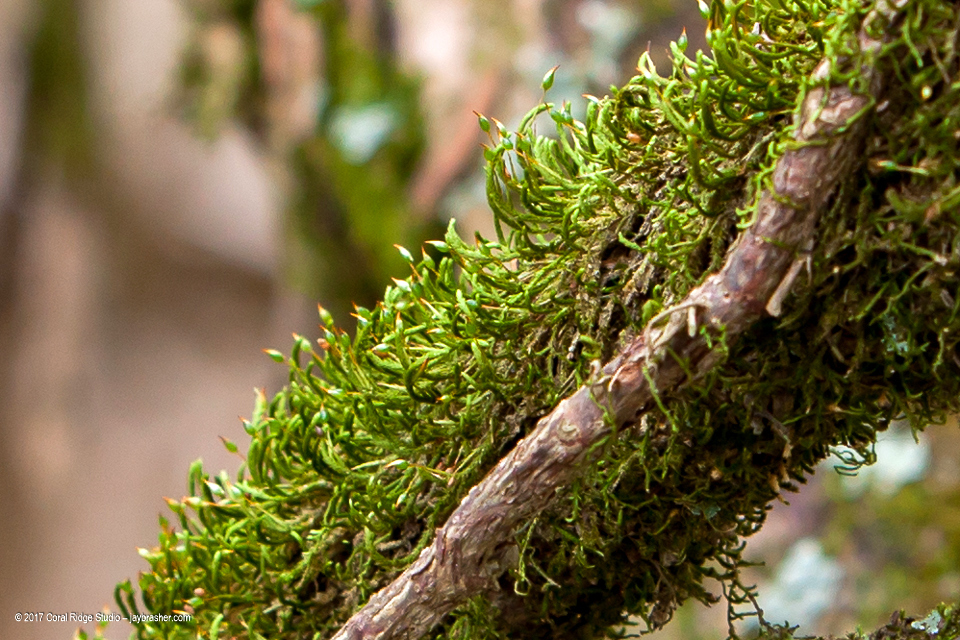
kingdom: Plantae
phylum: Bryophyta
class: Bryopsida
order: Hypnales
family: Leucodontaceae
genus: Leucodon
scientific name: Leucodon julaceus
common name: Smooth hook moss
